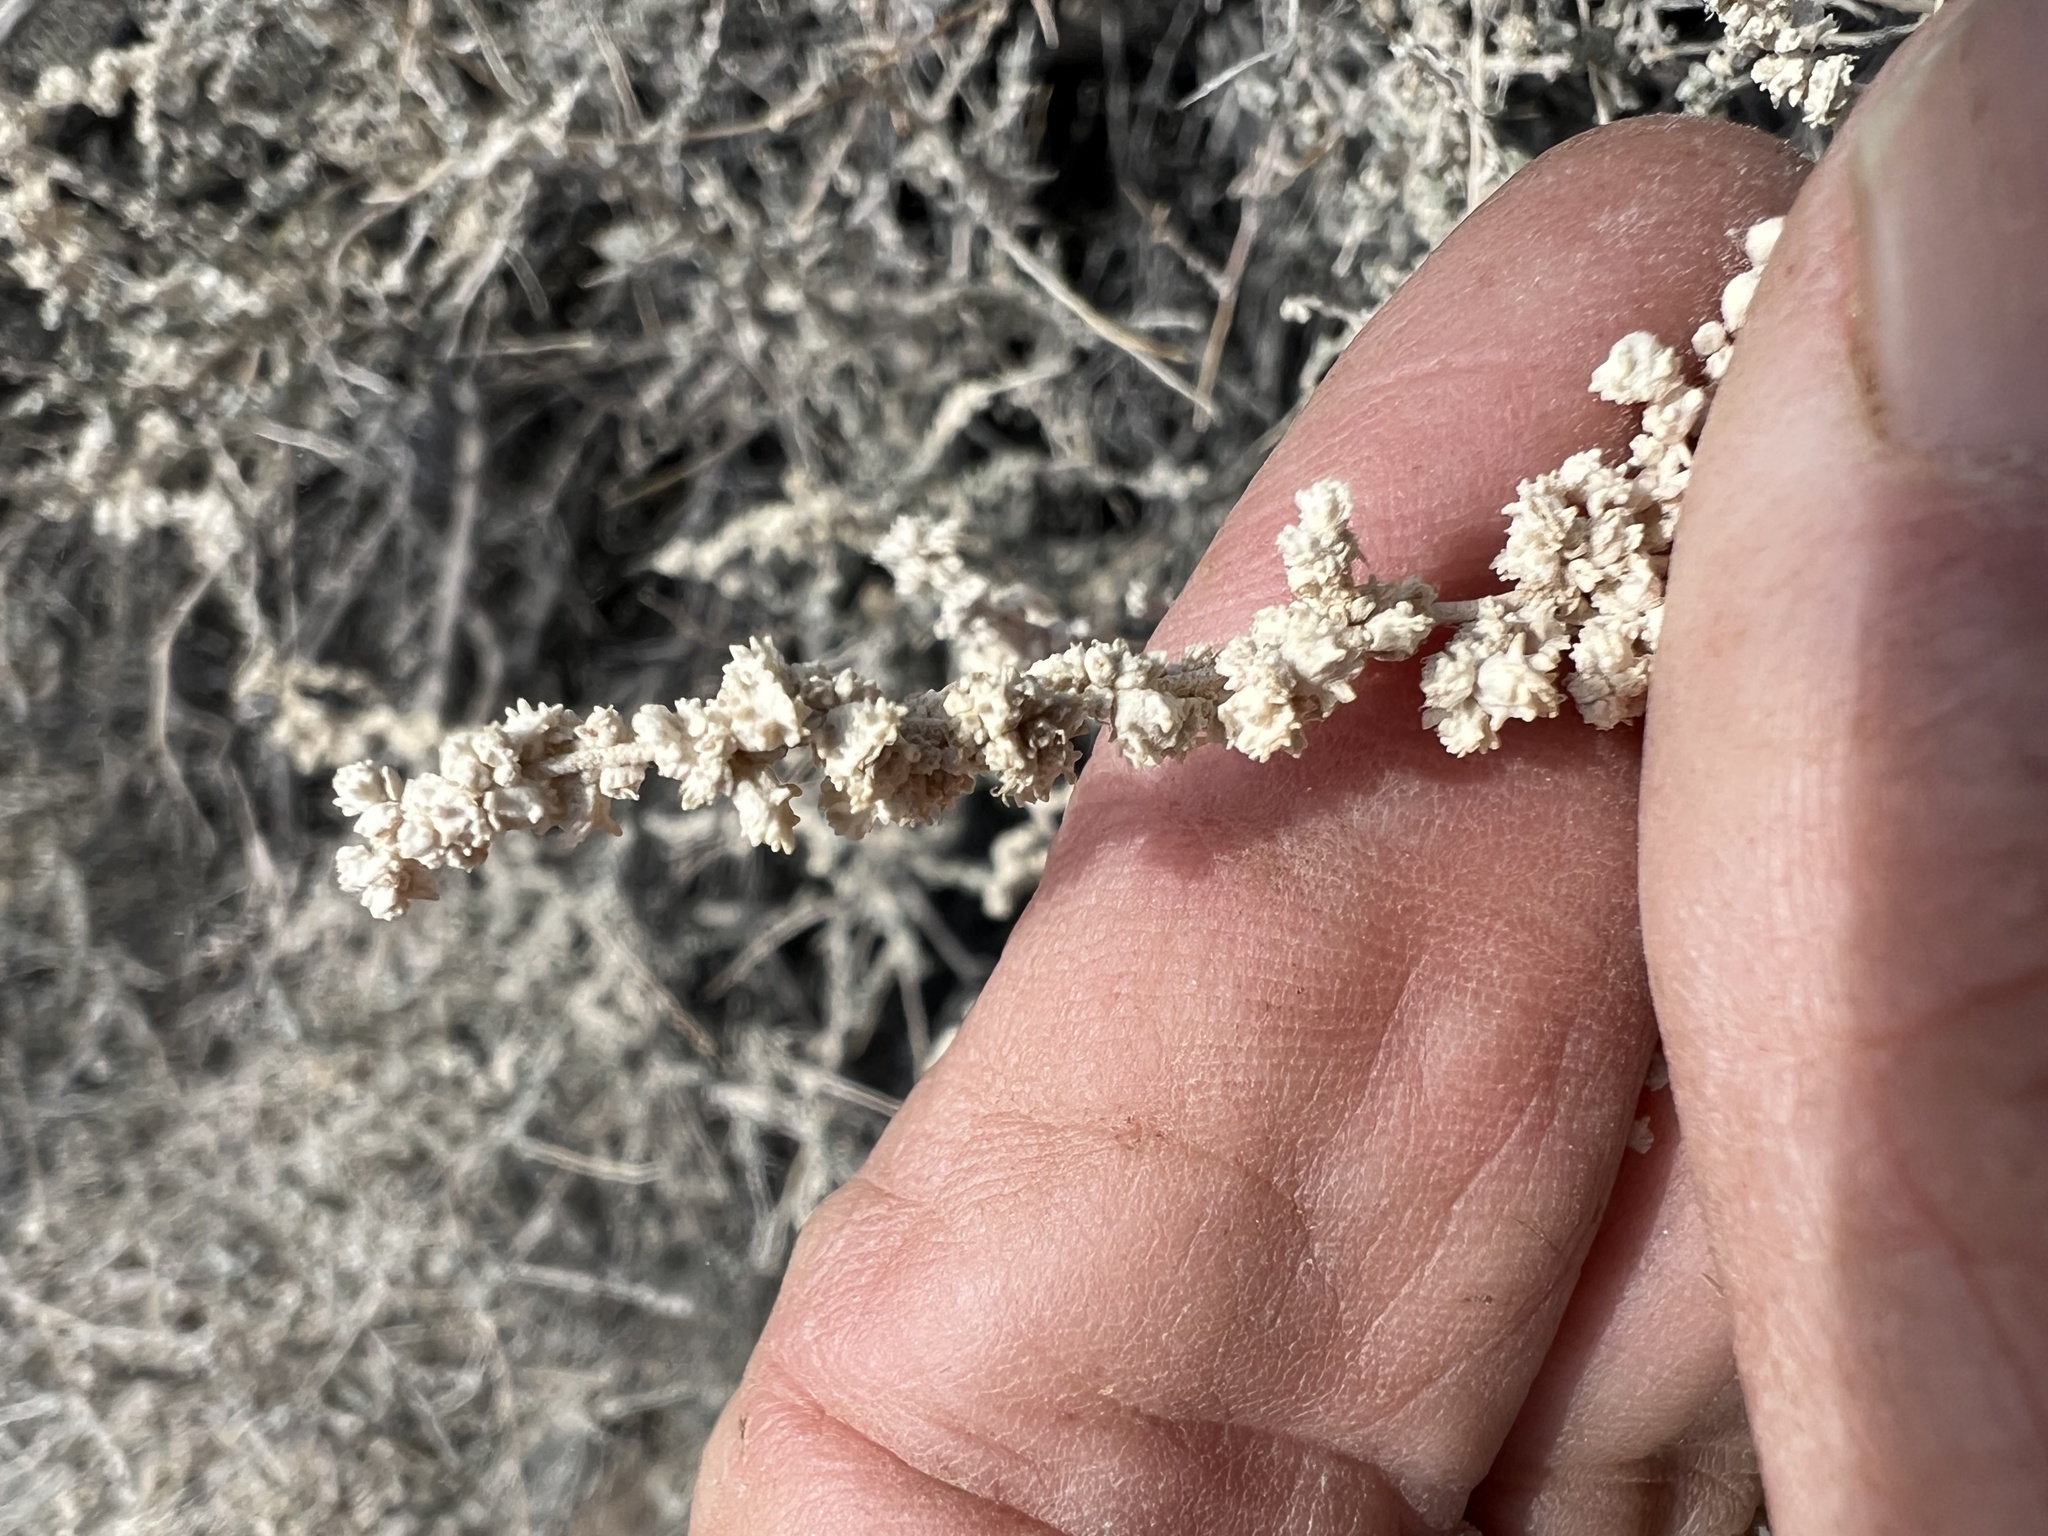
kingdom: Plantae
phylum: Tracheophyta
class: Magnoliopsida
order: Caryophyllales
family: Amaranthaceae
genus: Atriplex
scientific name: Atriplex polycarpa
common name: Desert saltbush
